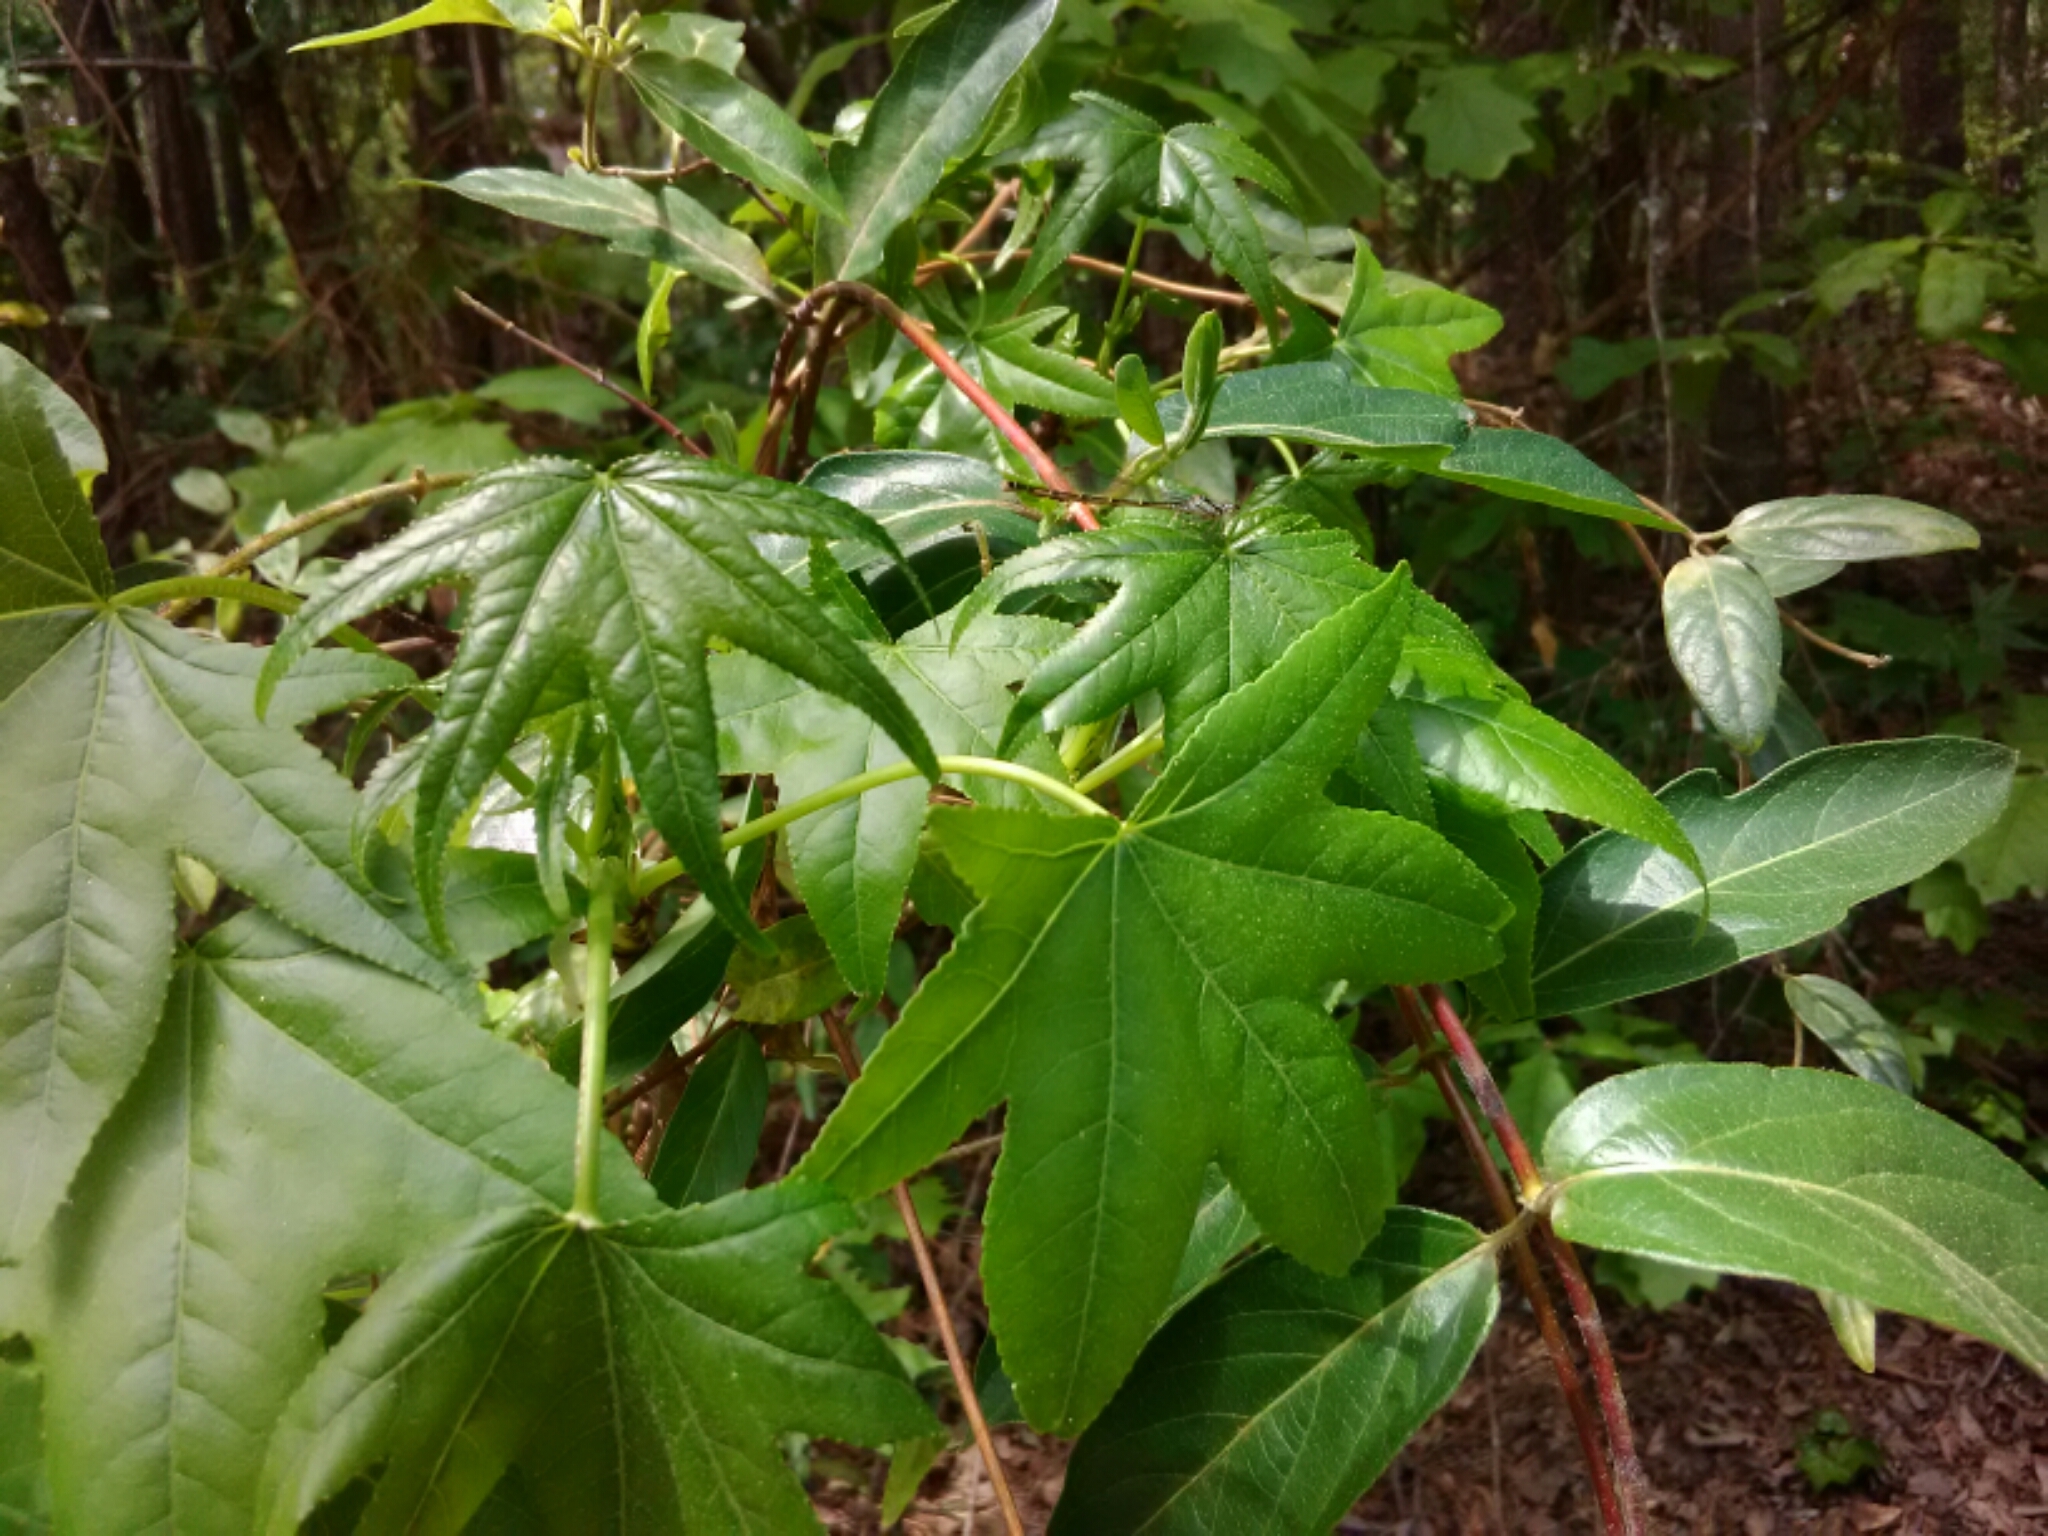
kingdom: Plantae
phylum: Tracheophyta
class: Magnoliopsida
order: Saxifragales
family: Altingiaceae
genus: Liquidambar
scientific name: Liquidambar styraciflua
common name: Sweet gum
